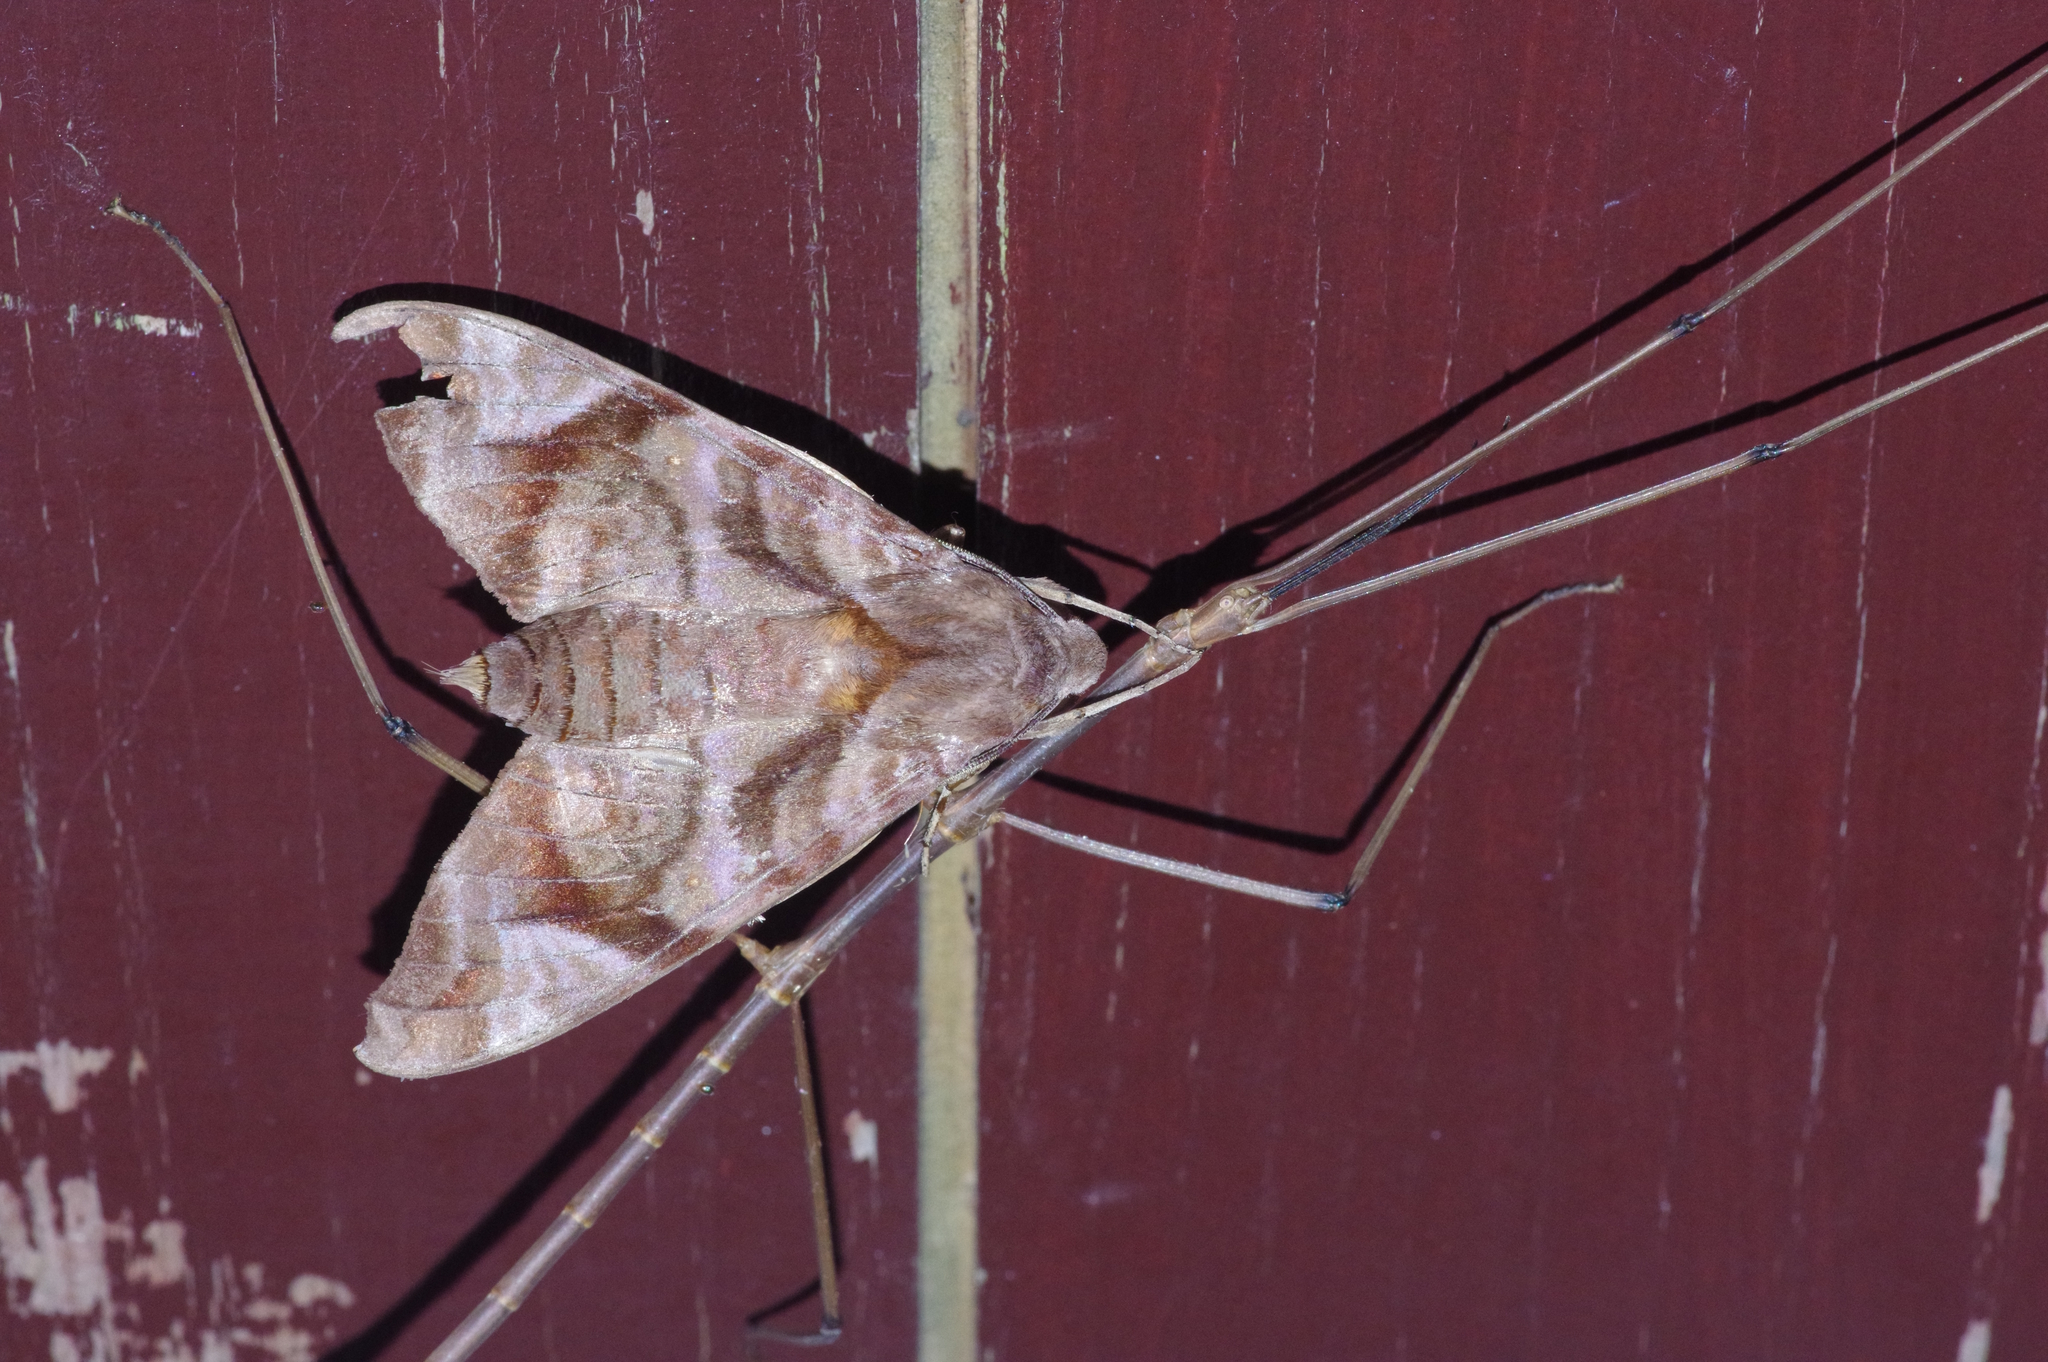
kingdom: Animalia
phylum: Arthropoda
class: Insecta
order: Phasmida
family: Phasmatidae
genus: Entoria
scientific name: Entoria miyakoensis
